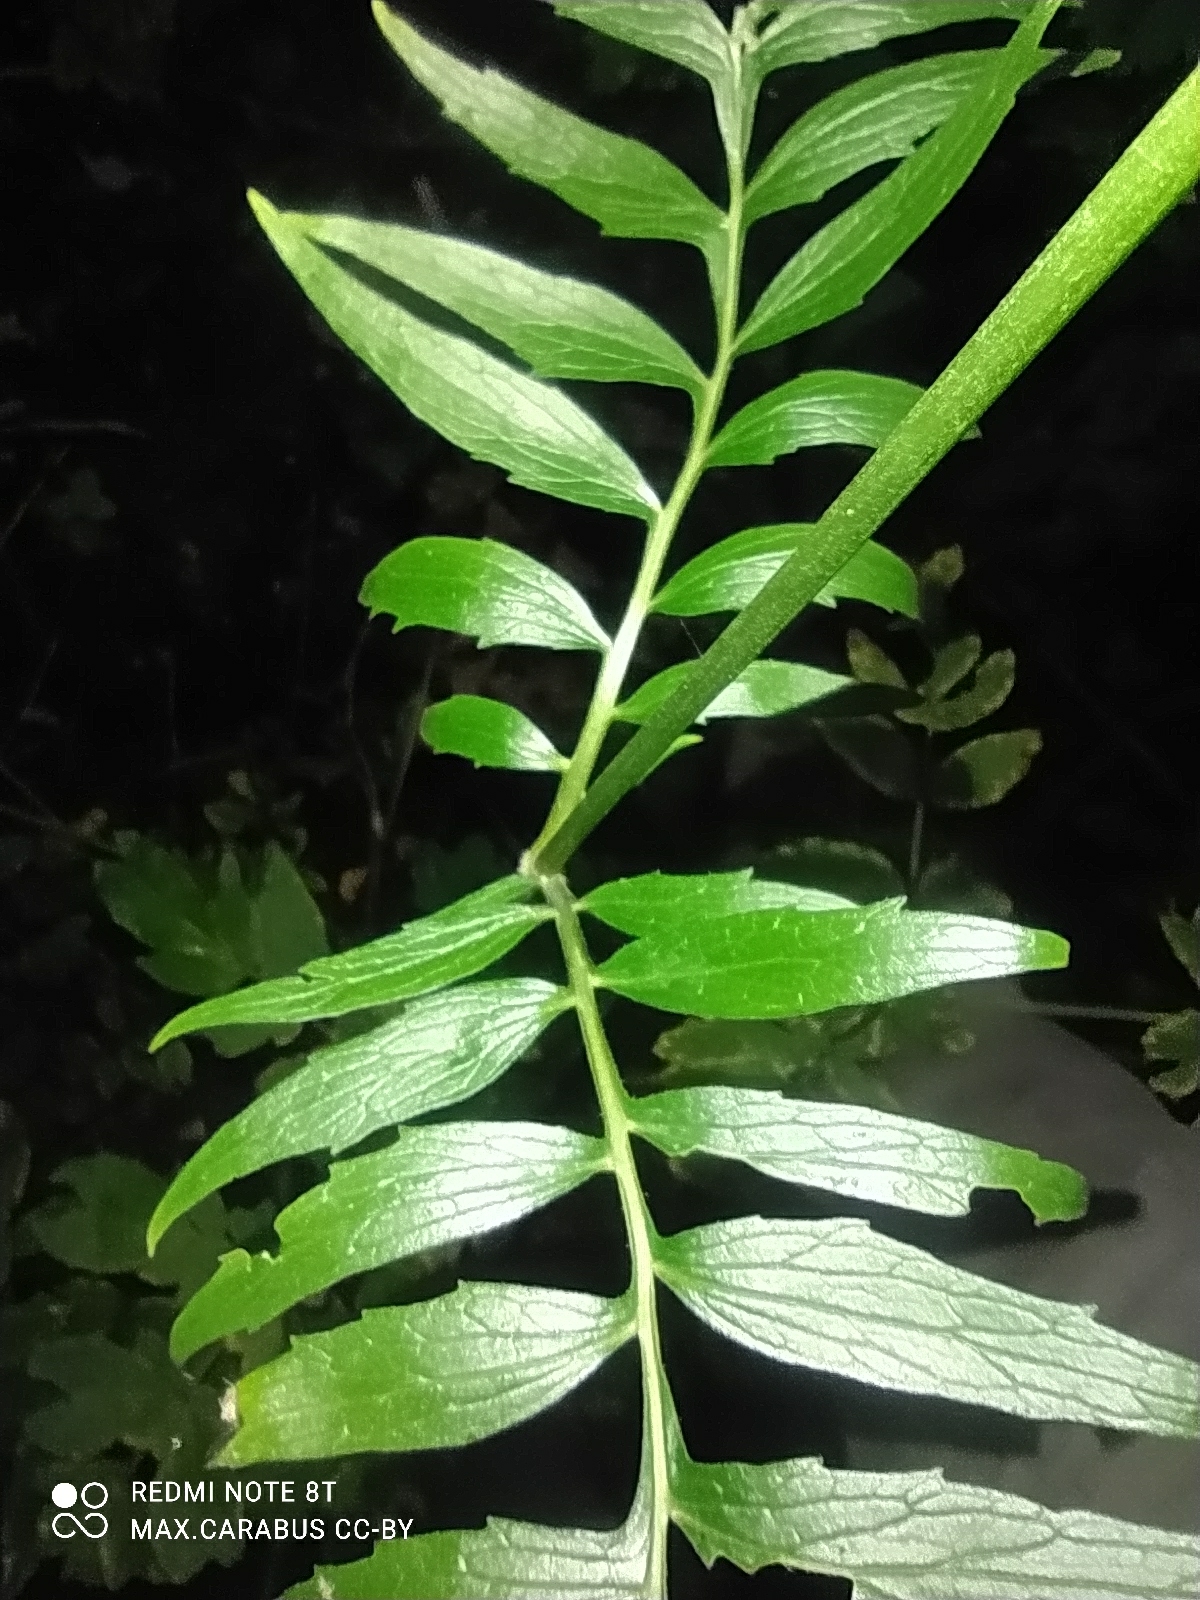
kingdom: Plantae
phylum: Tracheophyta
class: Magnoliopsida
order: Dipsacales
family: Caprifoliaceae
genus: Valeriana
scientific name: Valeriana officinalis
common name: Common valerian
